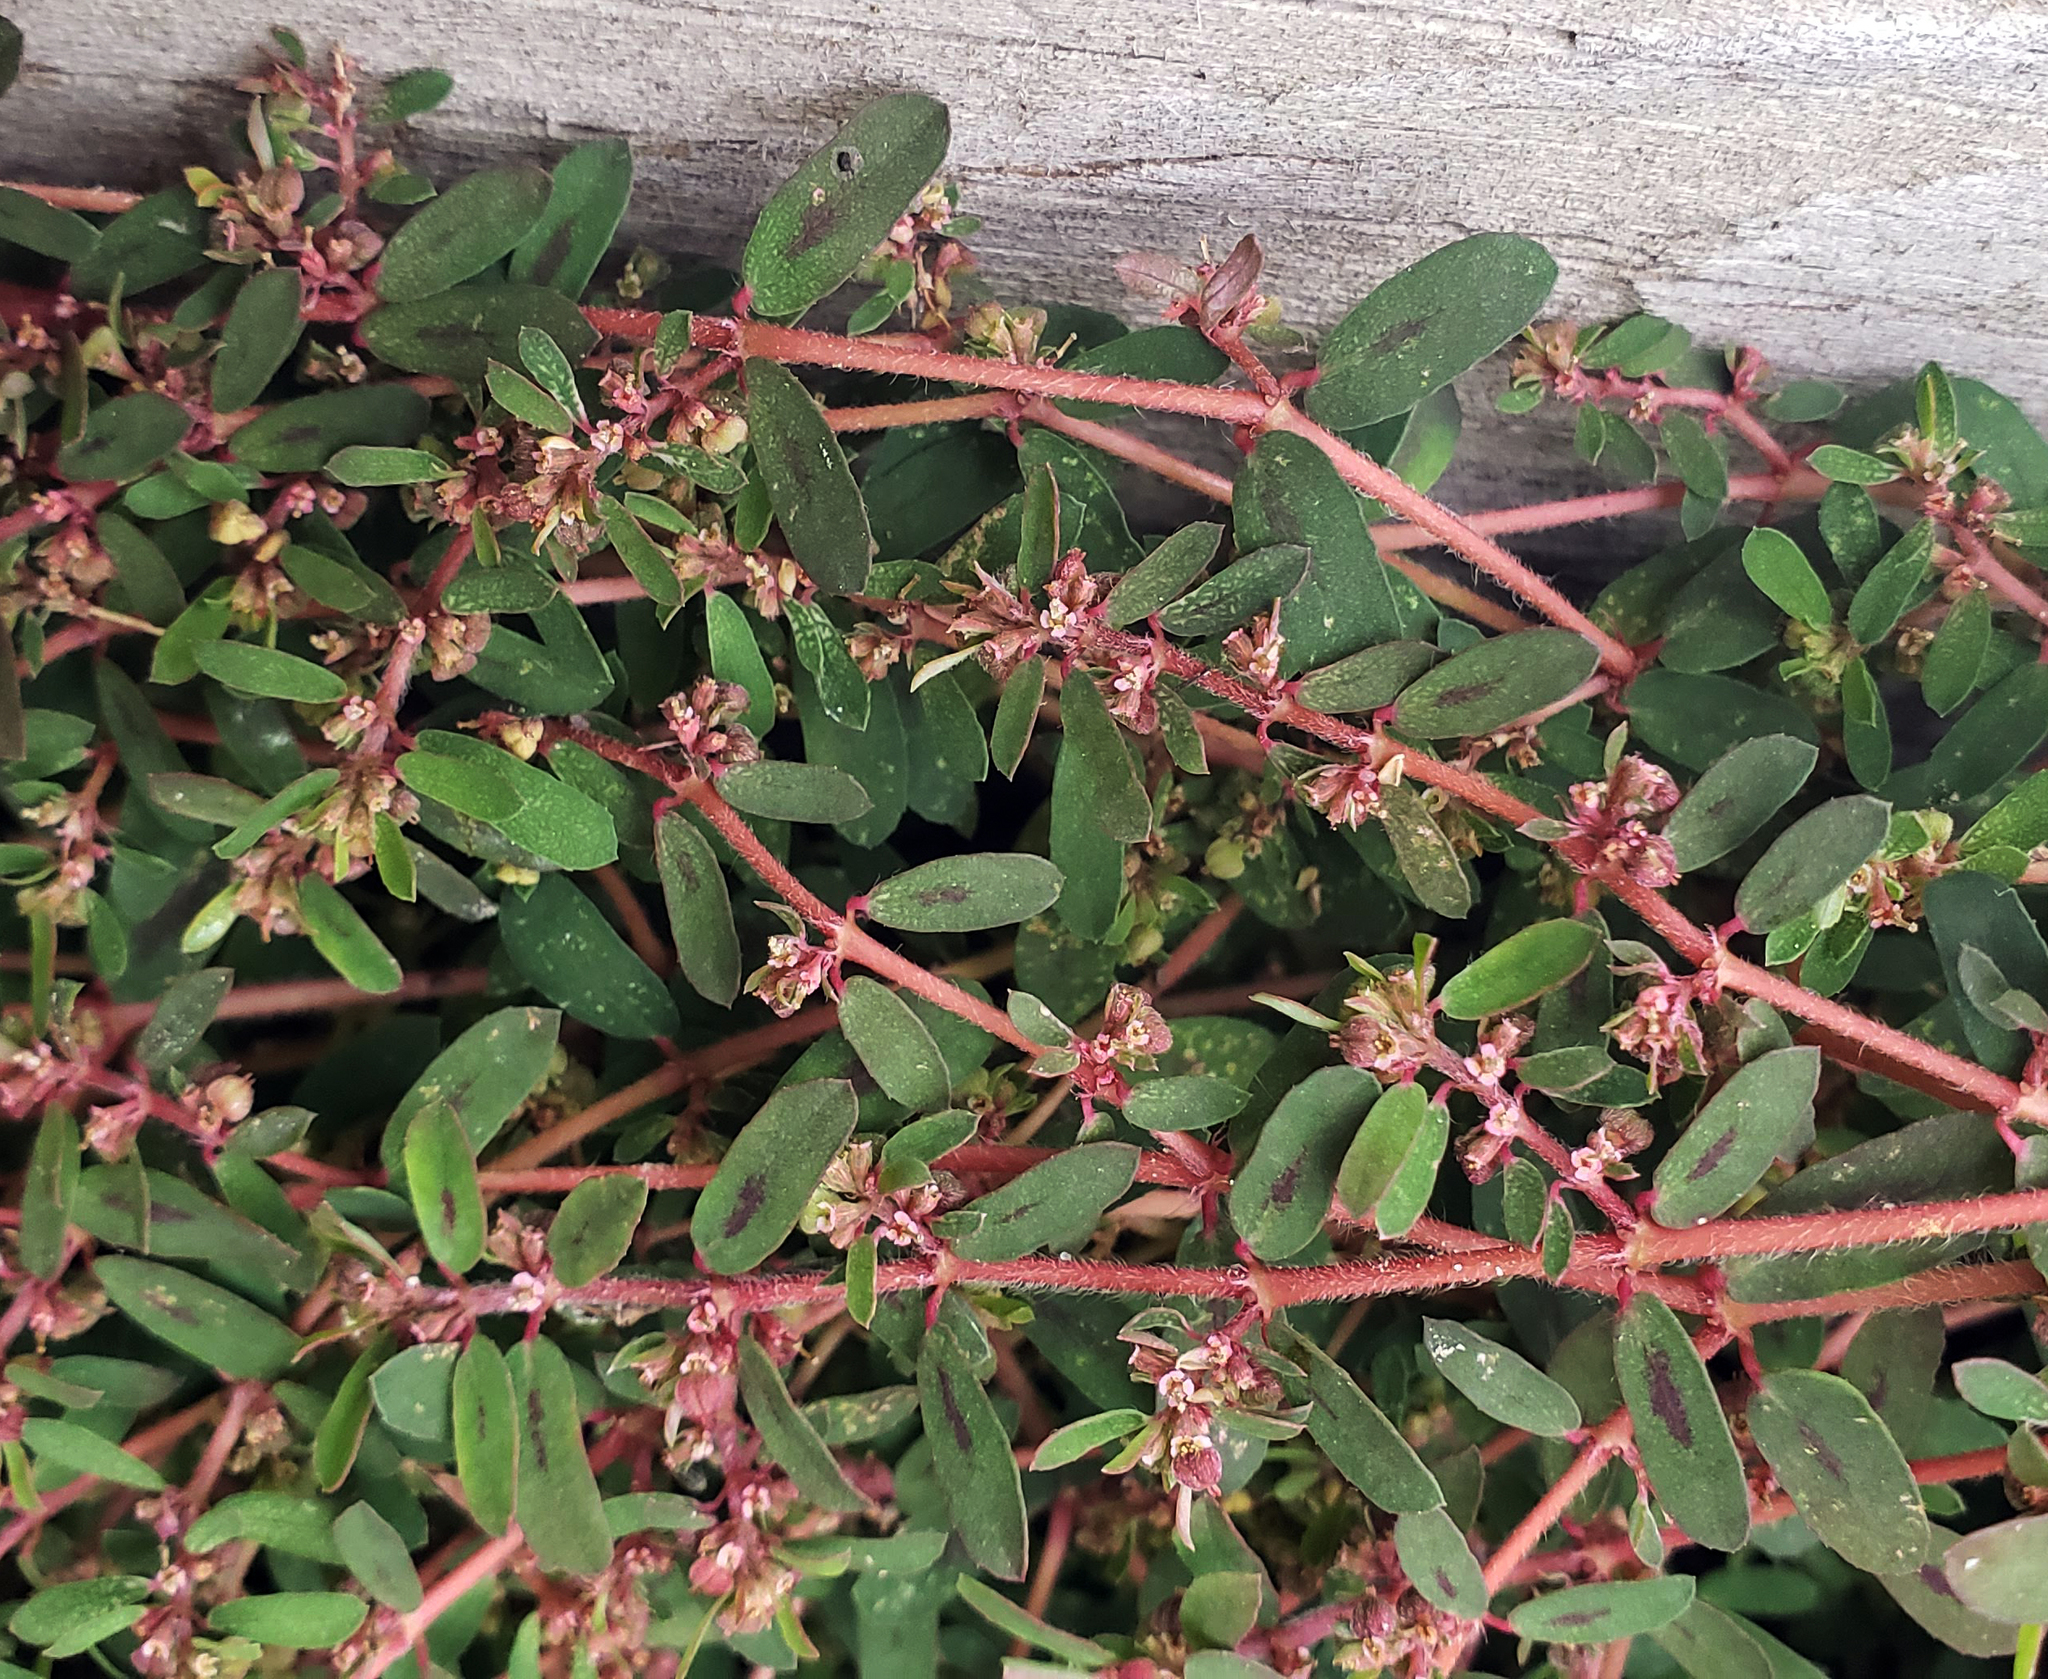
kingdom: Plantae
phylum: Tracheophyta
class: Magnoliopsida
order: Malpighiales
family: Euphorbiaceae
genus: Euphorbia
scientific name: Euphorbia maculata
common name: Spotted spurge
